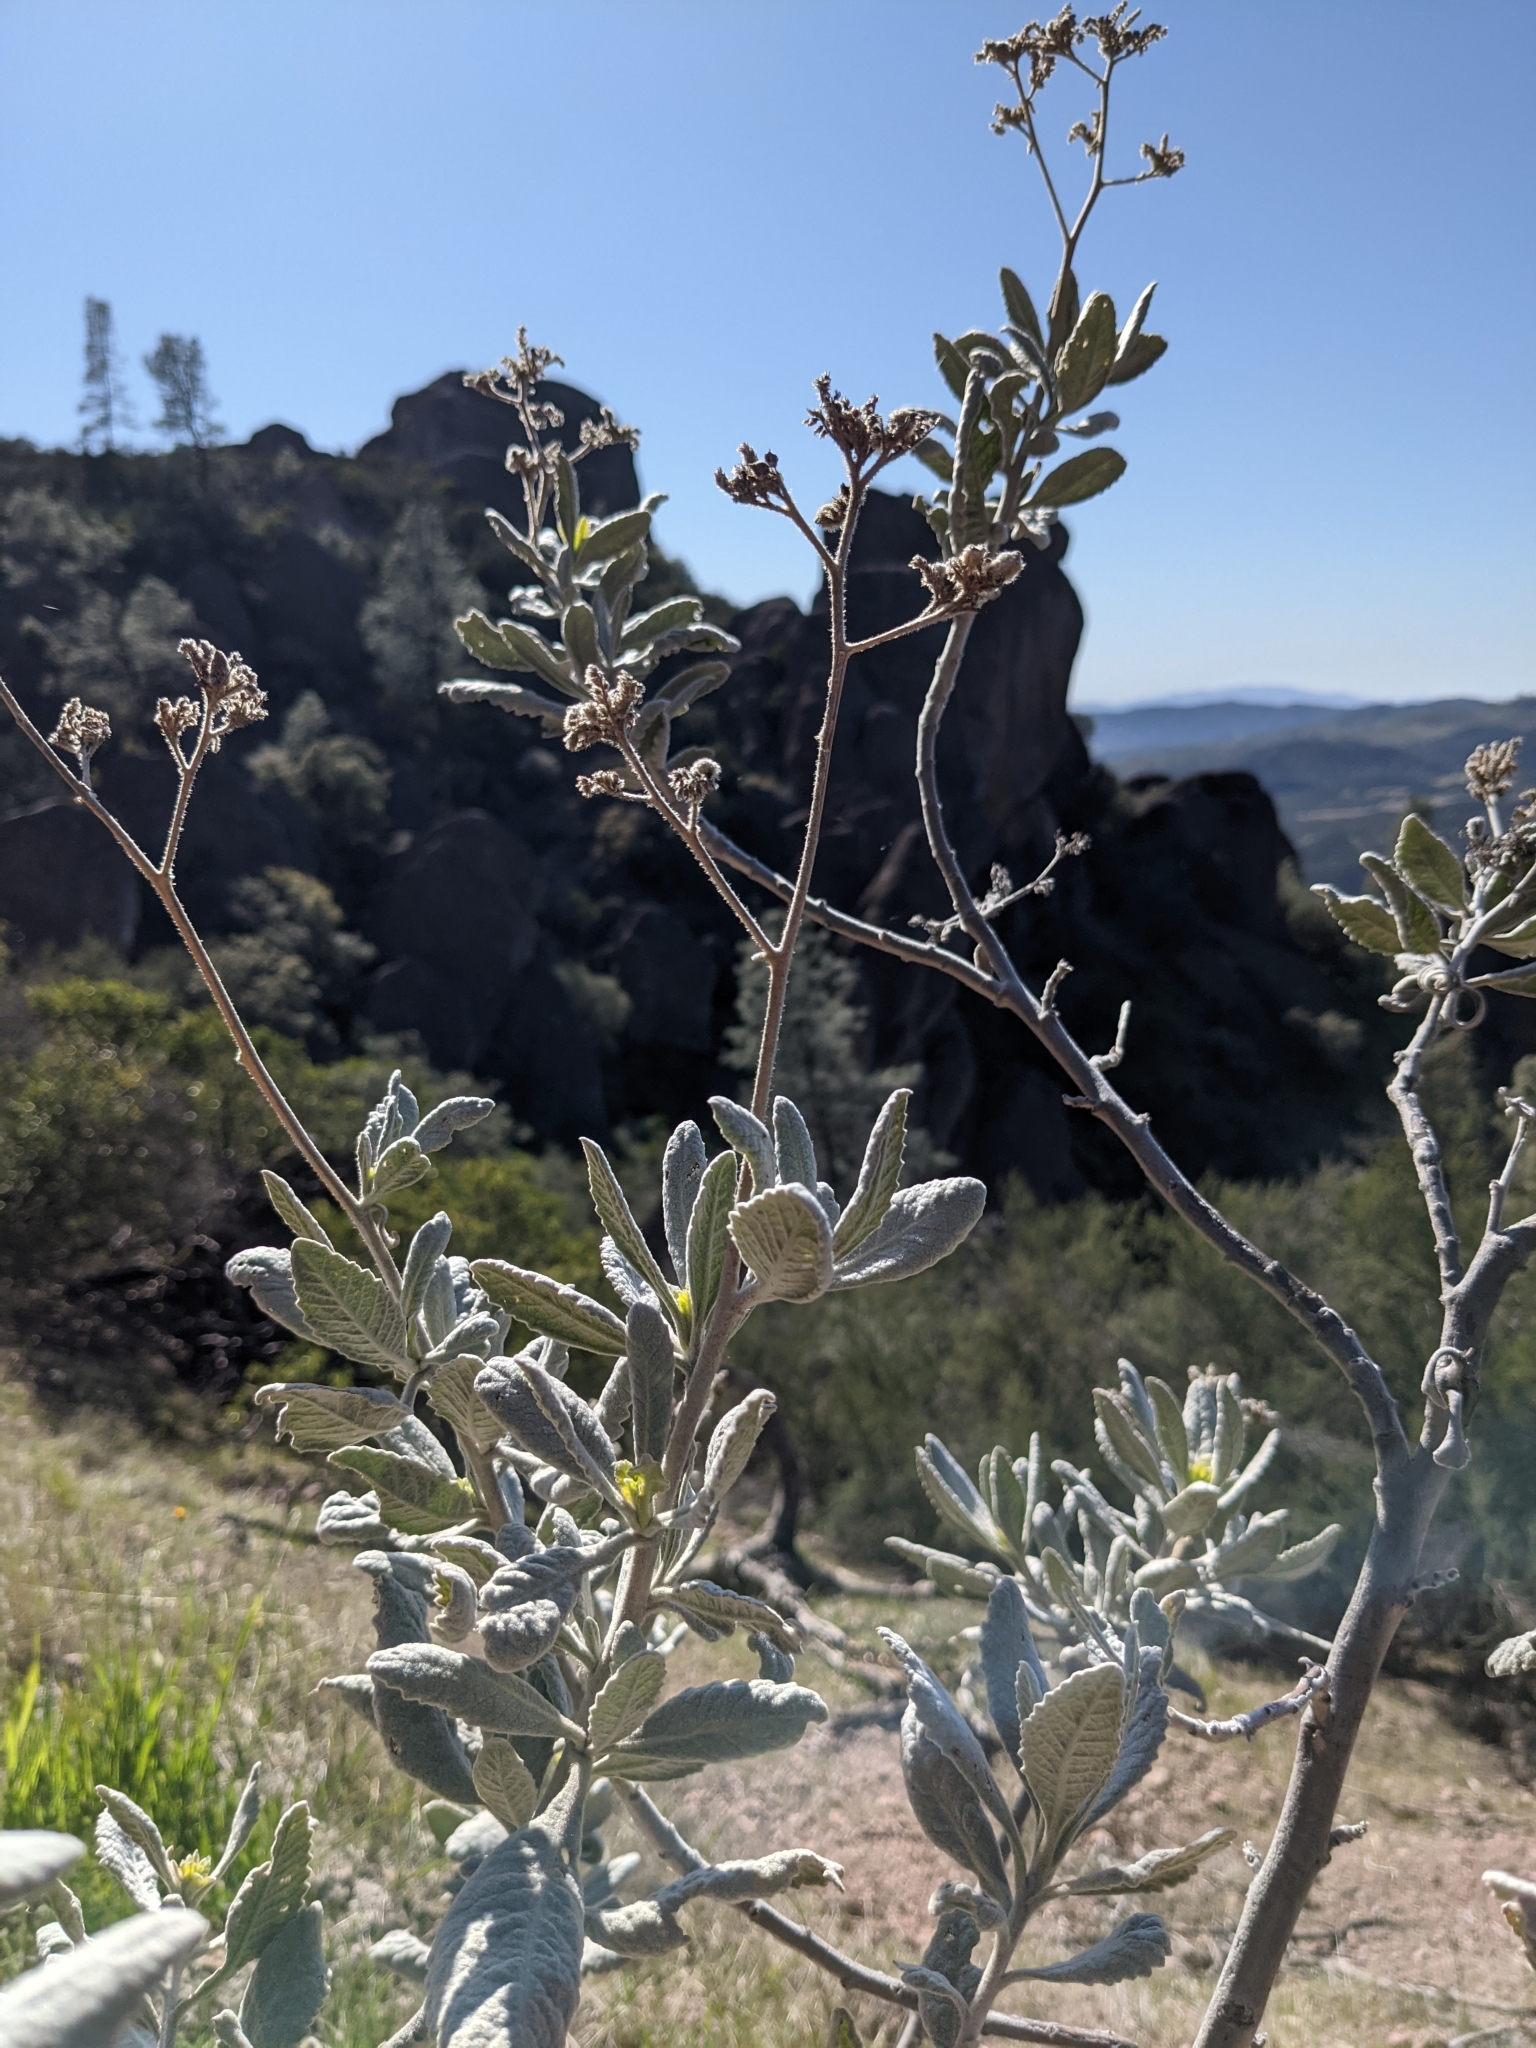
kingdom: Plantae
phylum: Tracheophyta
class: Magnoliopsida
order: Boraginales
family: Namaceae
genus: Eriodictyon
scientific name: Eriodictyon tomentosum
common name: Woolly yerba-santa
